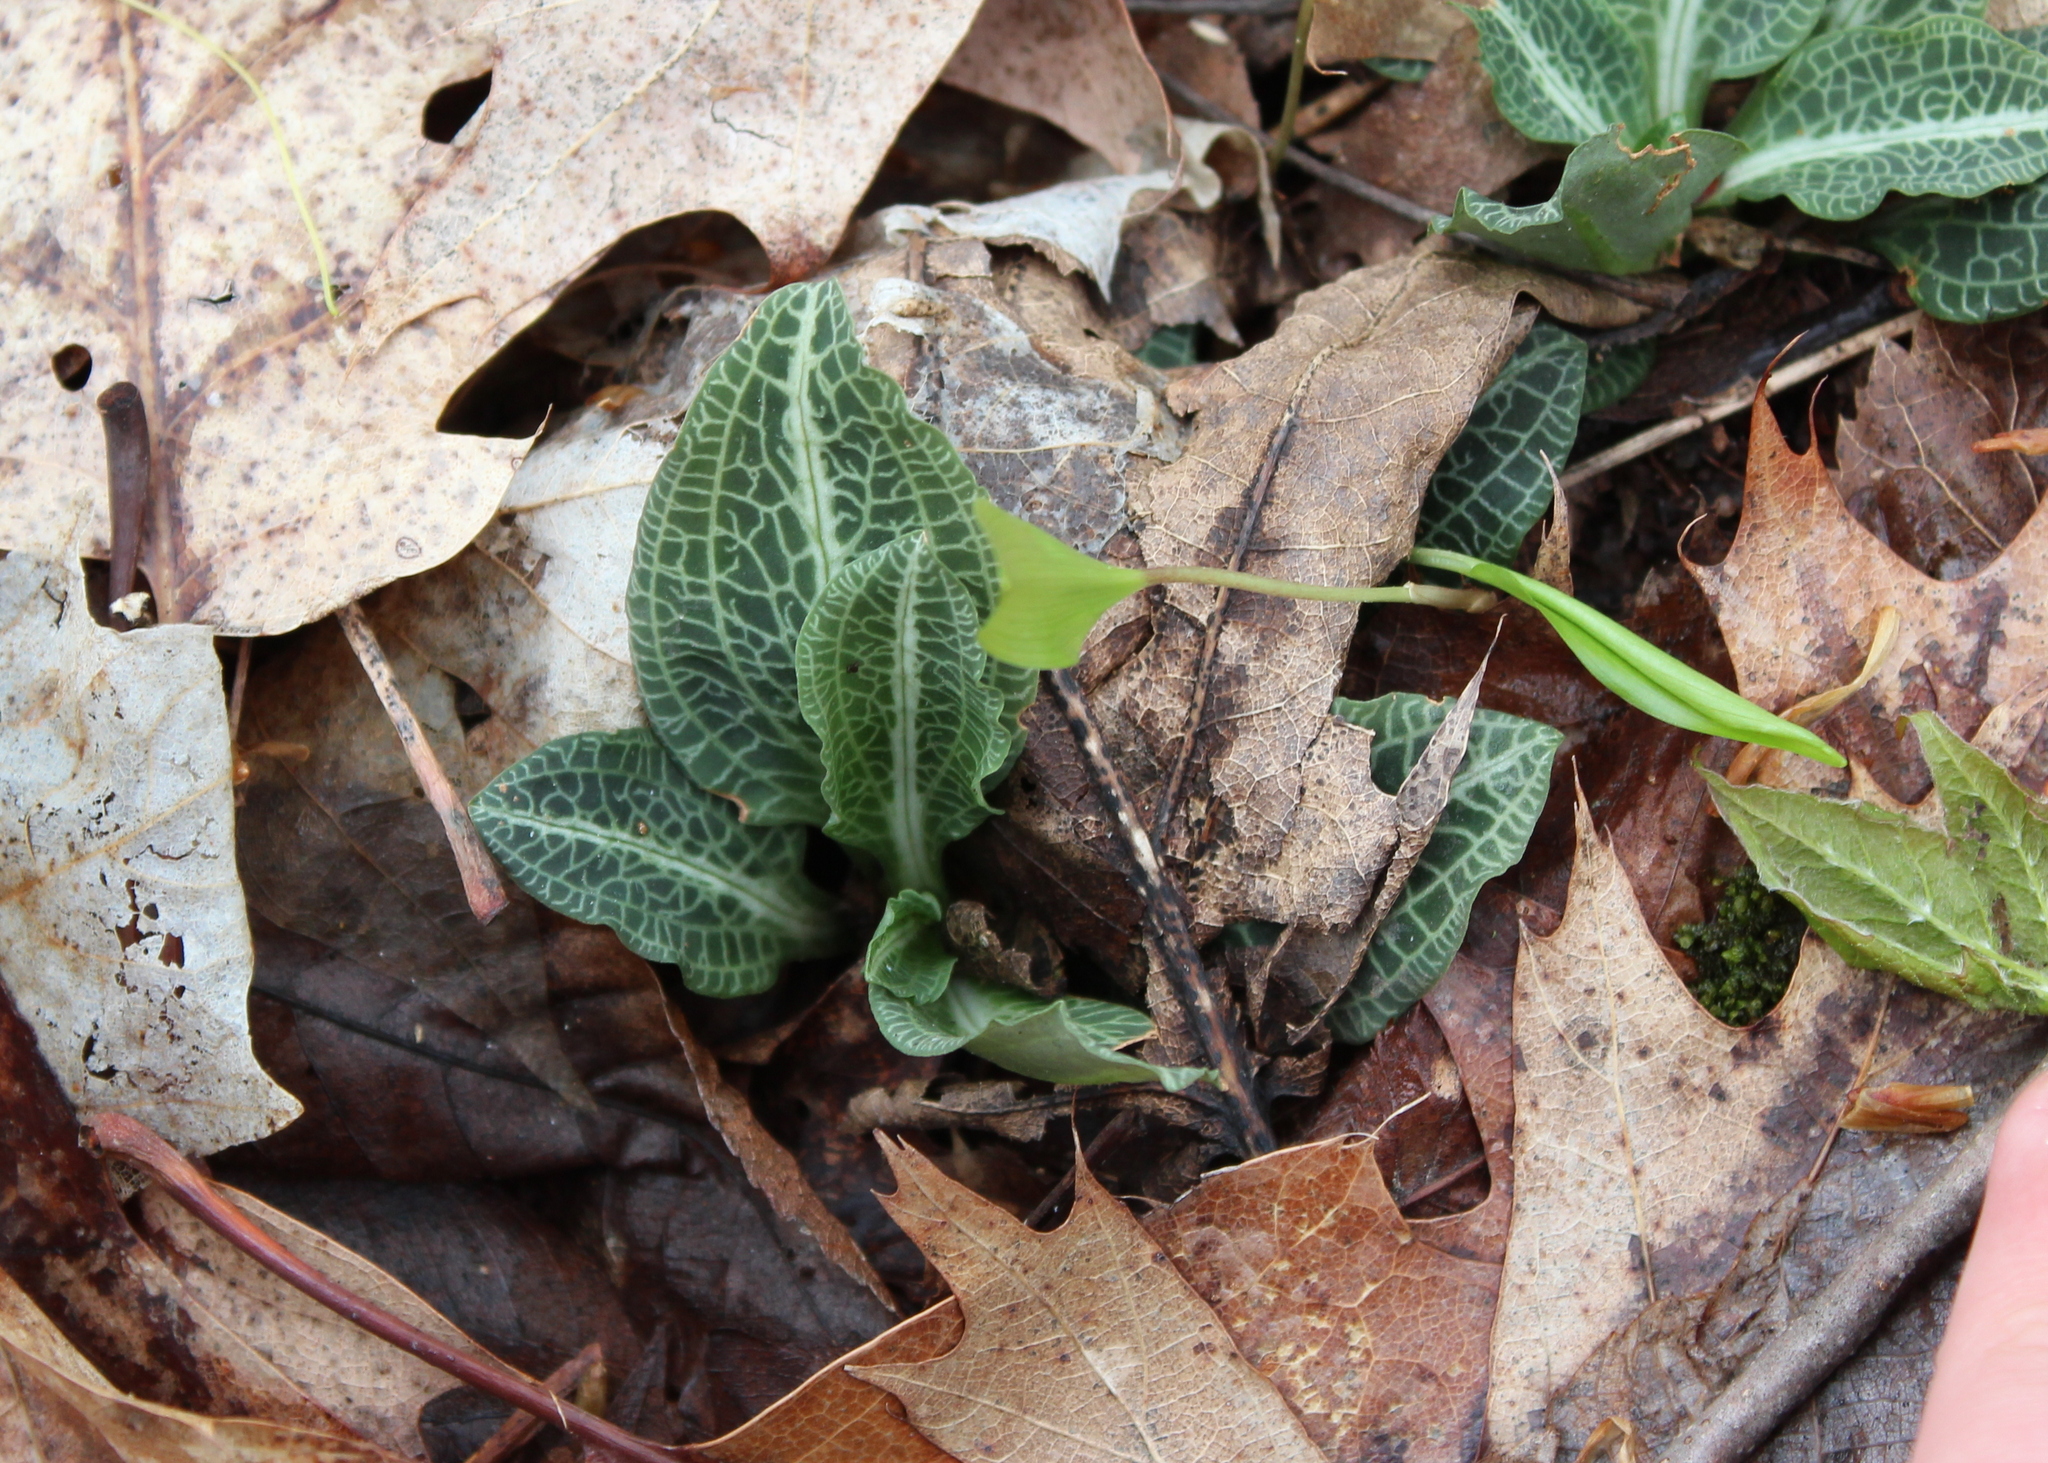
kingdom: Plantae
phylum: Tracheophyta
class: Liliopsida
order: Asparagales
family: Orchidaceae
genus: Goodyera
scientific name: Goodyera pubescens
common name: Downy rattlesnake-plantain
